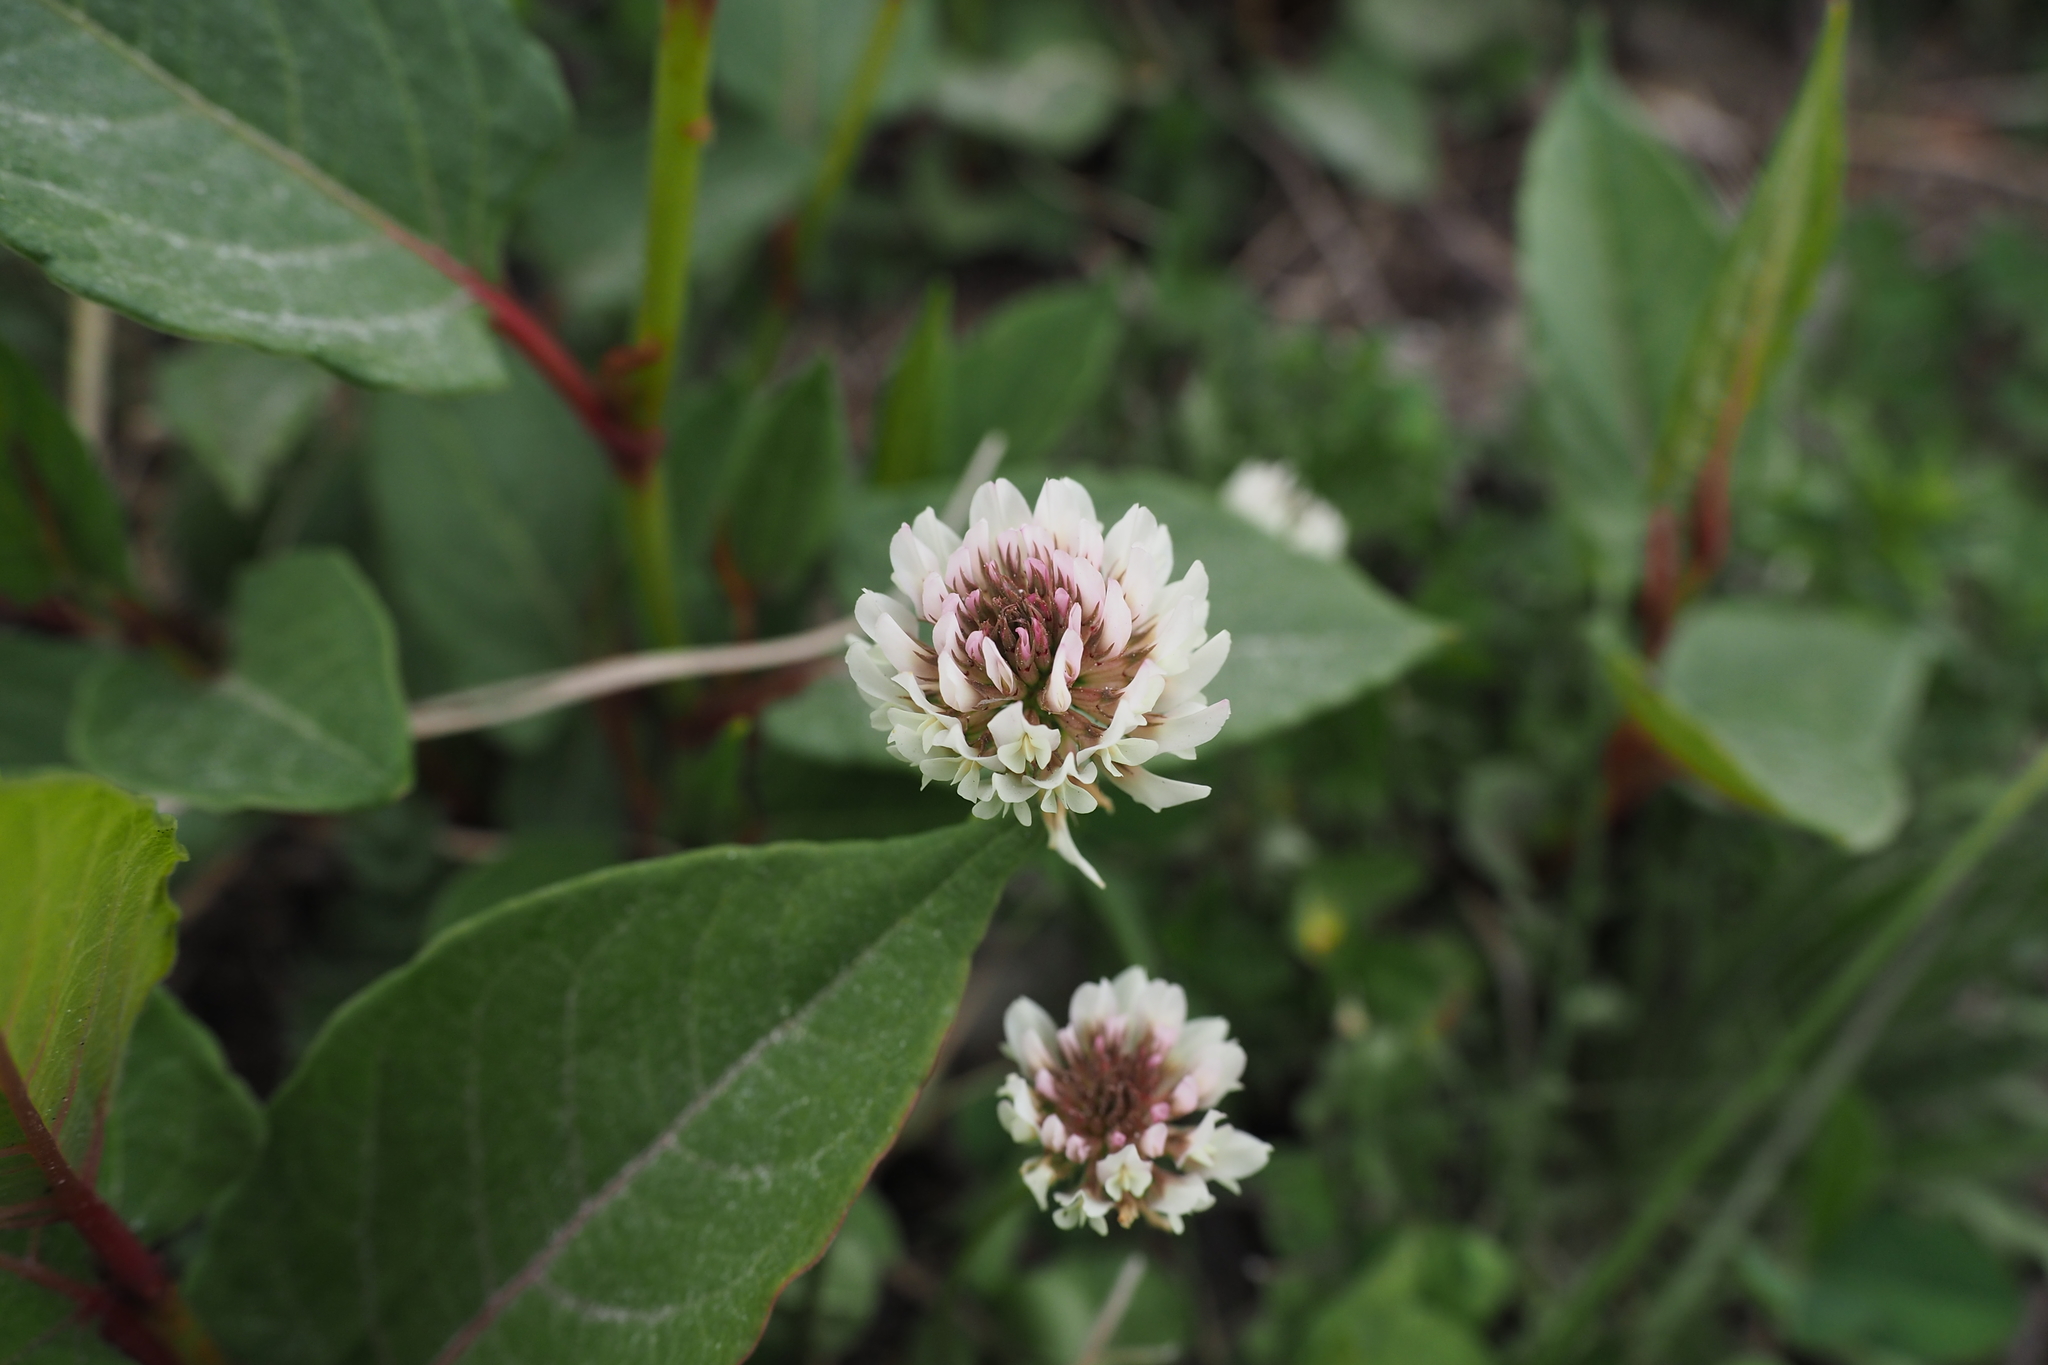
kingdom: Plantae
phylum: Tracheophyta
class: Magnoliopsida
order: Fabales
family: Fabaceae
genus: Trifolium
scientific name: Trifolium repens
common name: White clover
